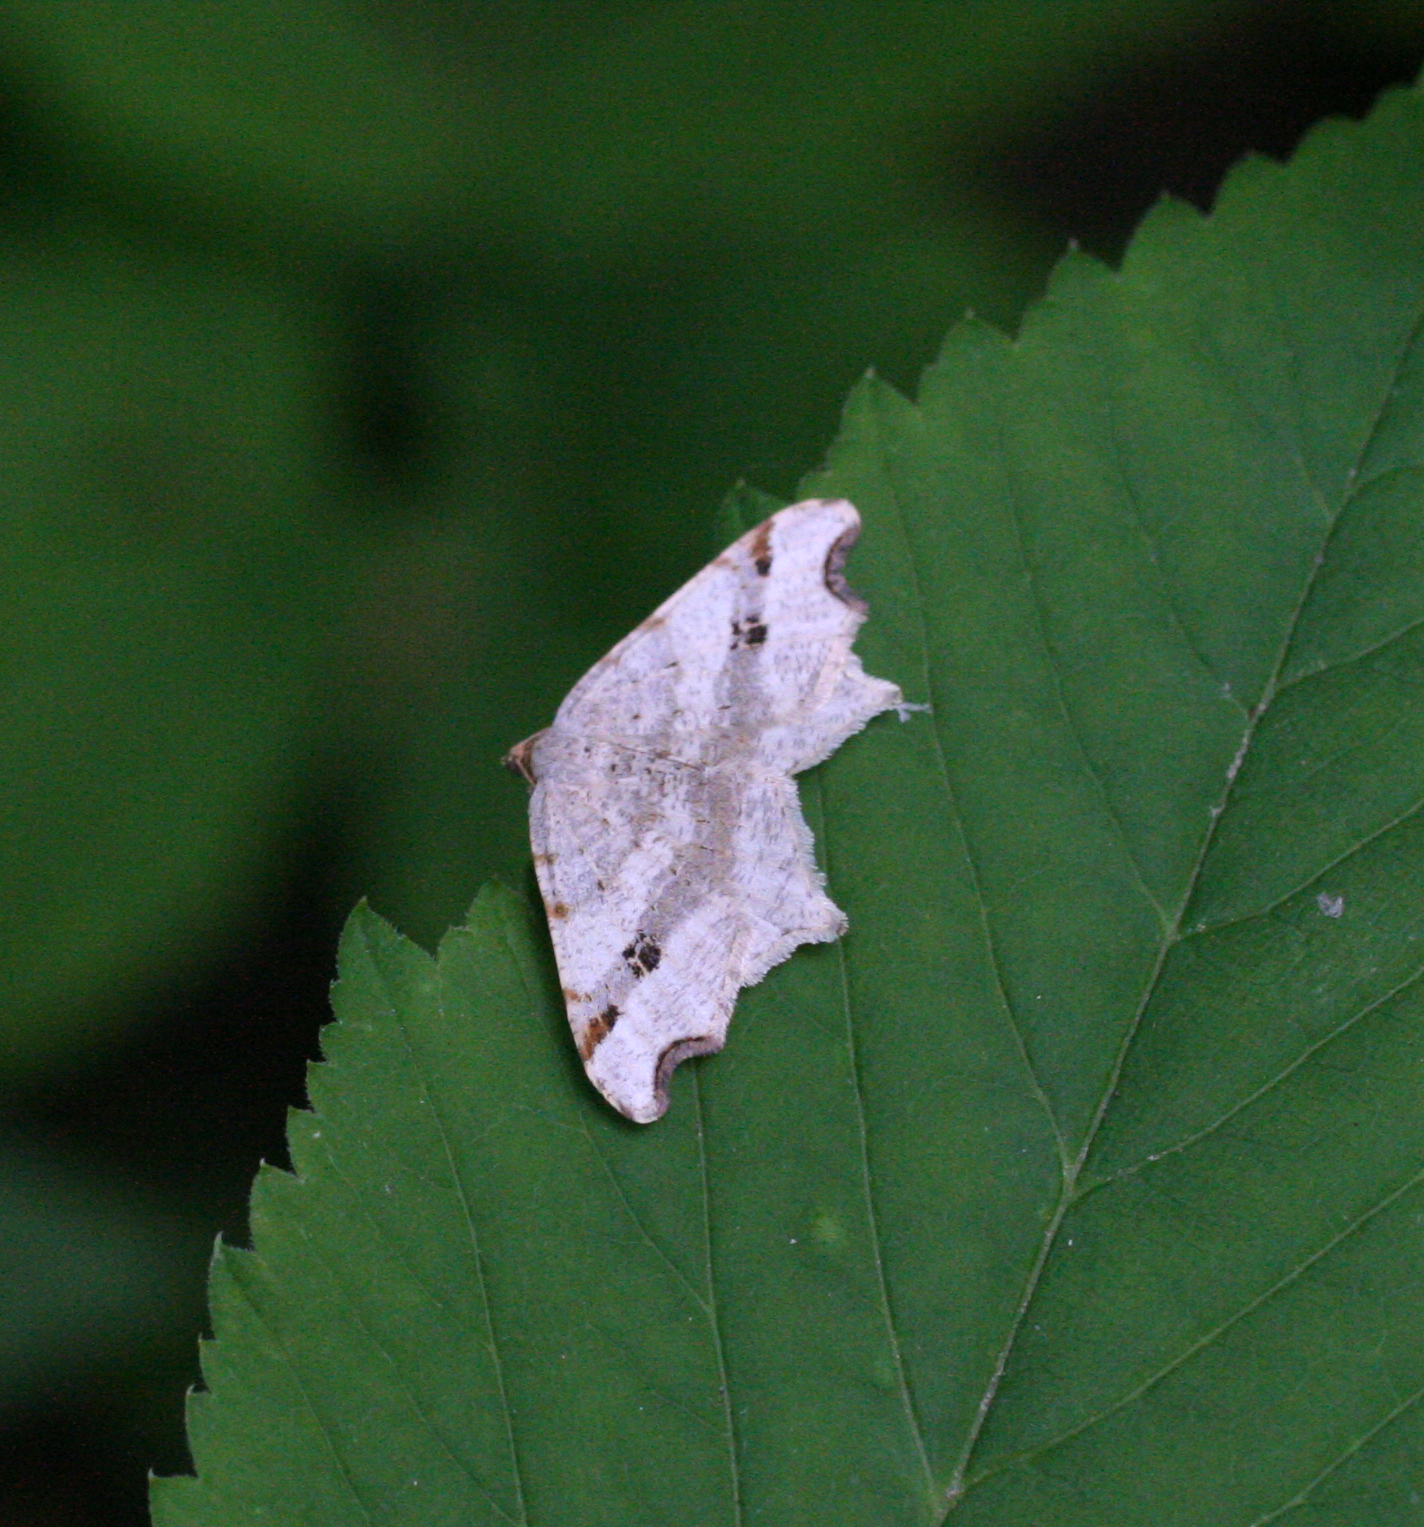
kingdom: Animalia
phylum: Arthropoda
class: Insecta
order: Lepidoptera
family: Geometridae
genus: Macaria
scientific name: Macaria alternata
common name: Sharp-angled peacock
